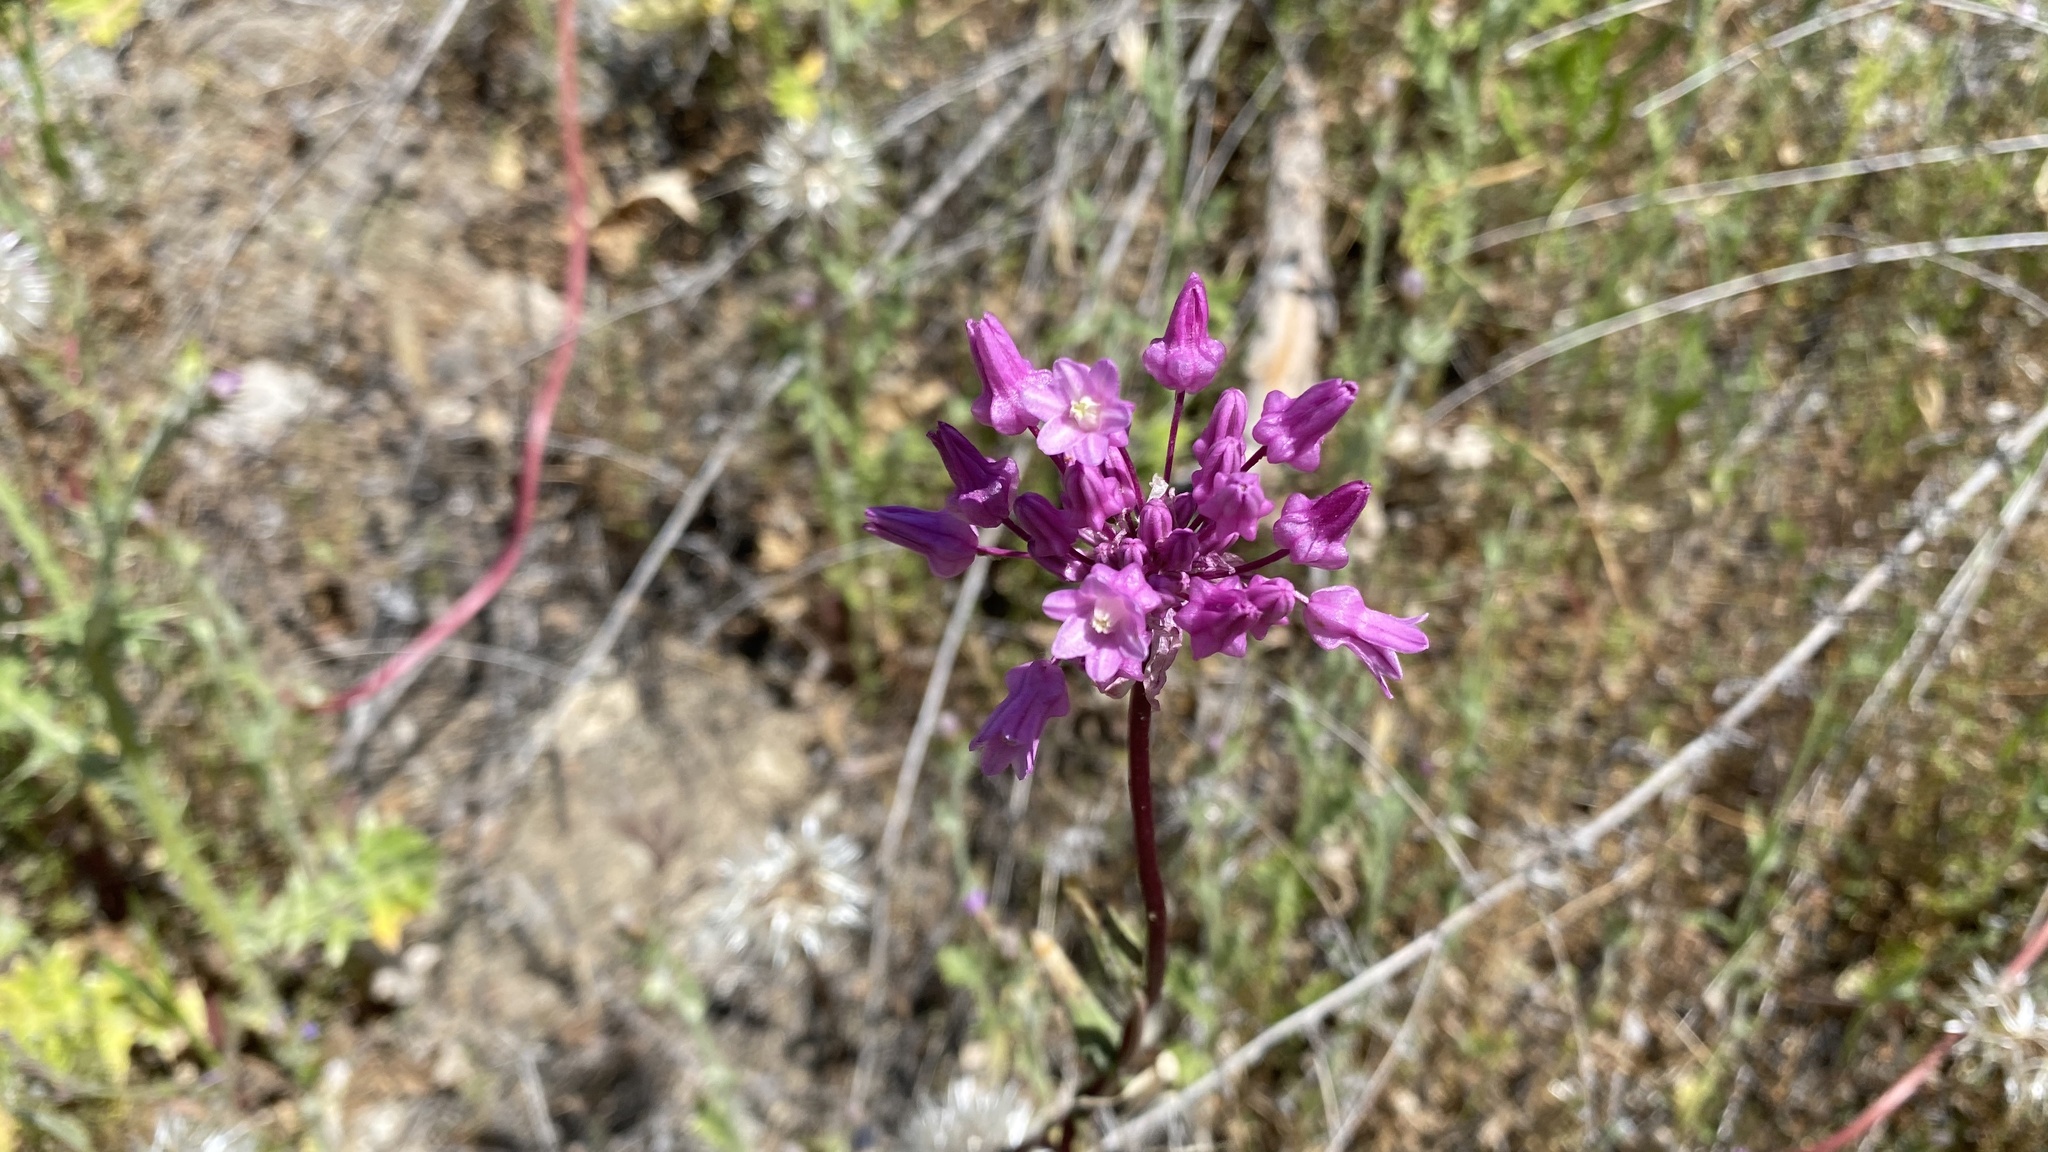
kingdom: Plantae
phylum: Tracheophyta
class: Liliopsida
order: Asparagales
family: Asparagaceae
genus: Dichelostemma
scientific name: Dichelostemma volubile
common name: Trining brodiaea
